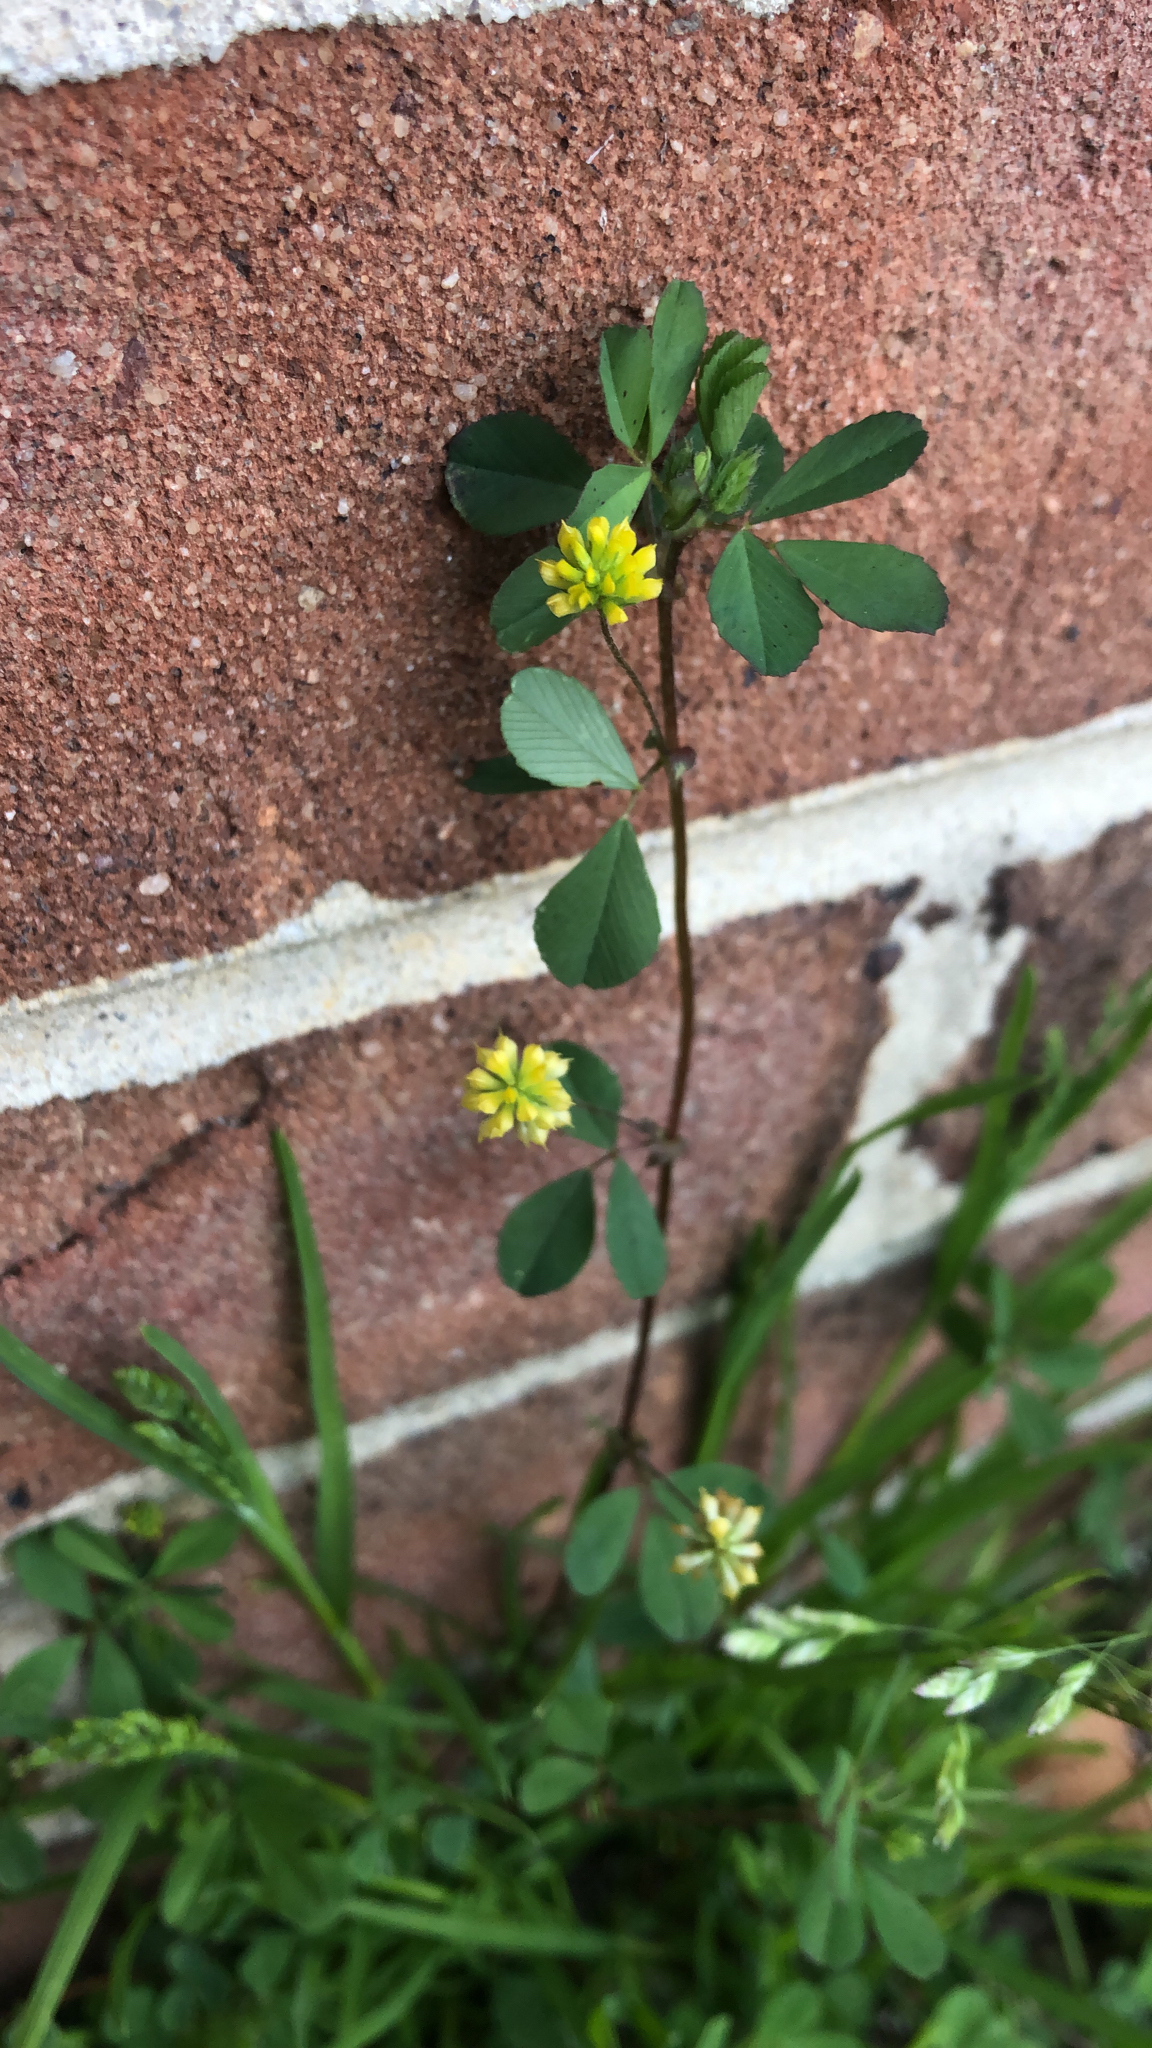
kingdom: Plantae
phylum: Tracheophyta
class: Magnoliopsida
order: Fabales
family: Fabaceae
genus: Trifolium
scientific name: Trifolium dubium
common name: Suckling clover
